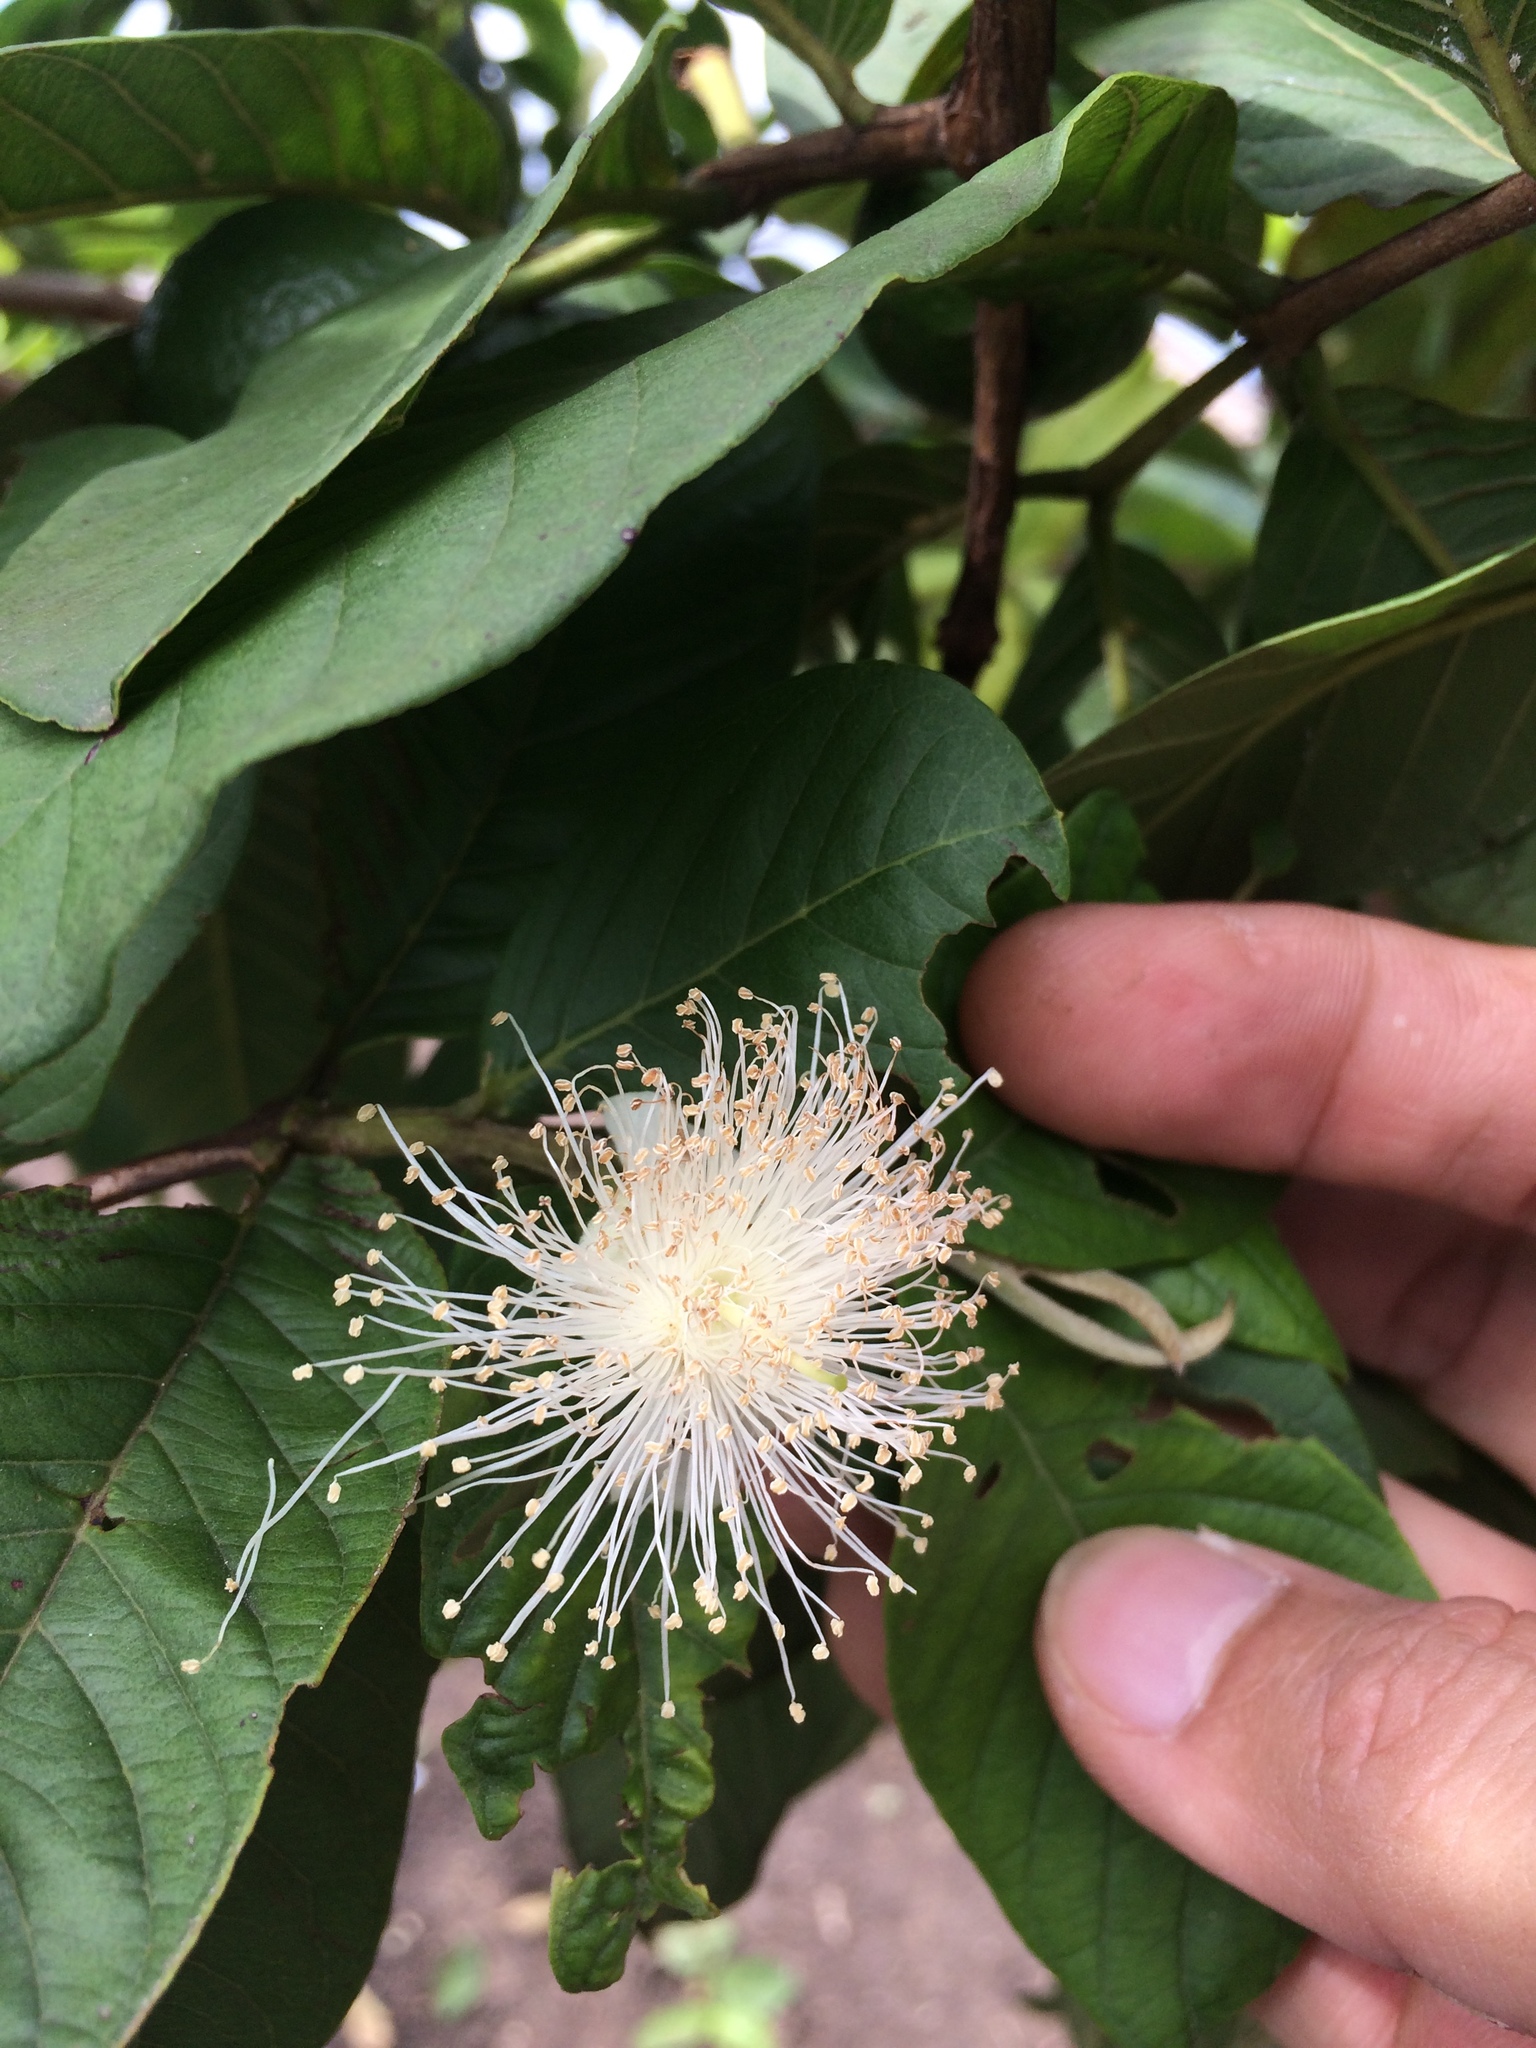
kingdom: Plantae
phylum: Tracheophyta
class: Magnoliopsida
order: Myrtales
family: Myrtaceae
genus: Psidium
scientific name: Psidium guajava
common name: Guava
